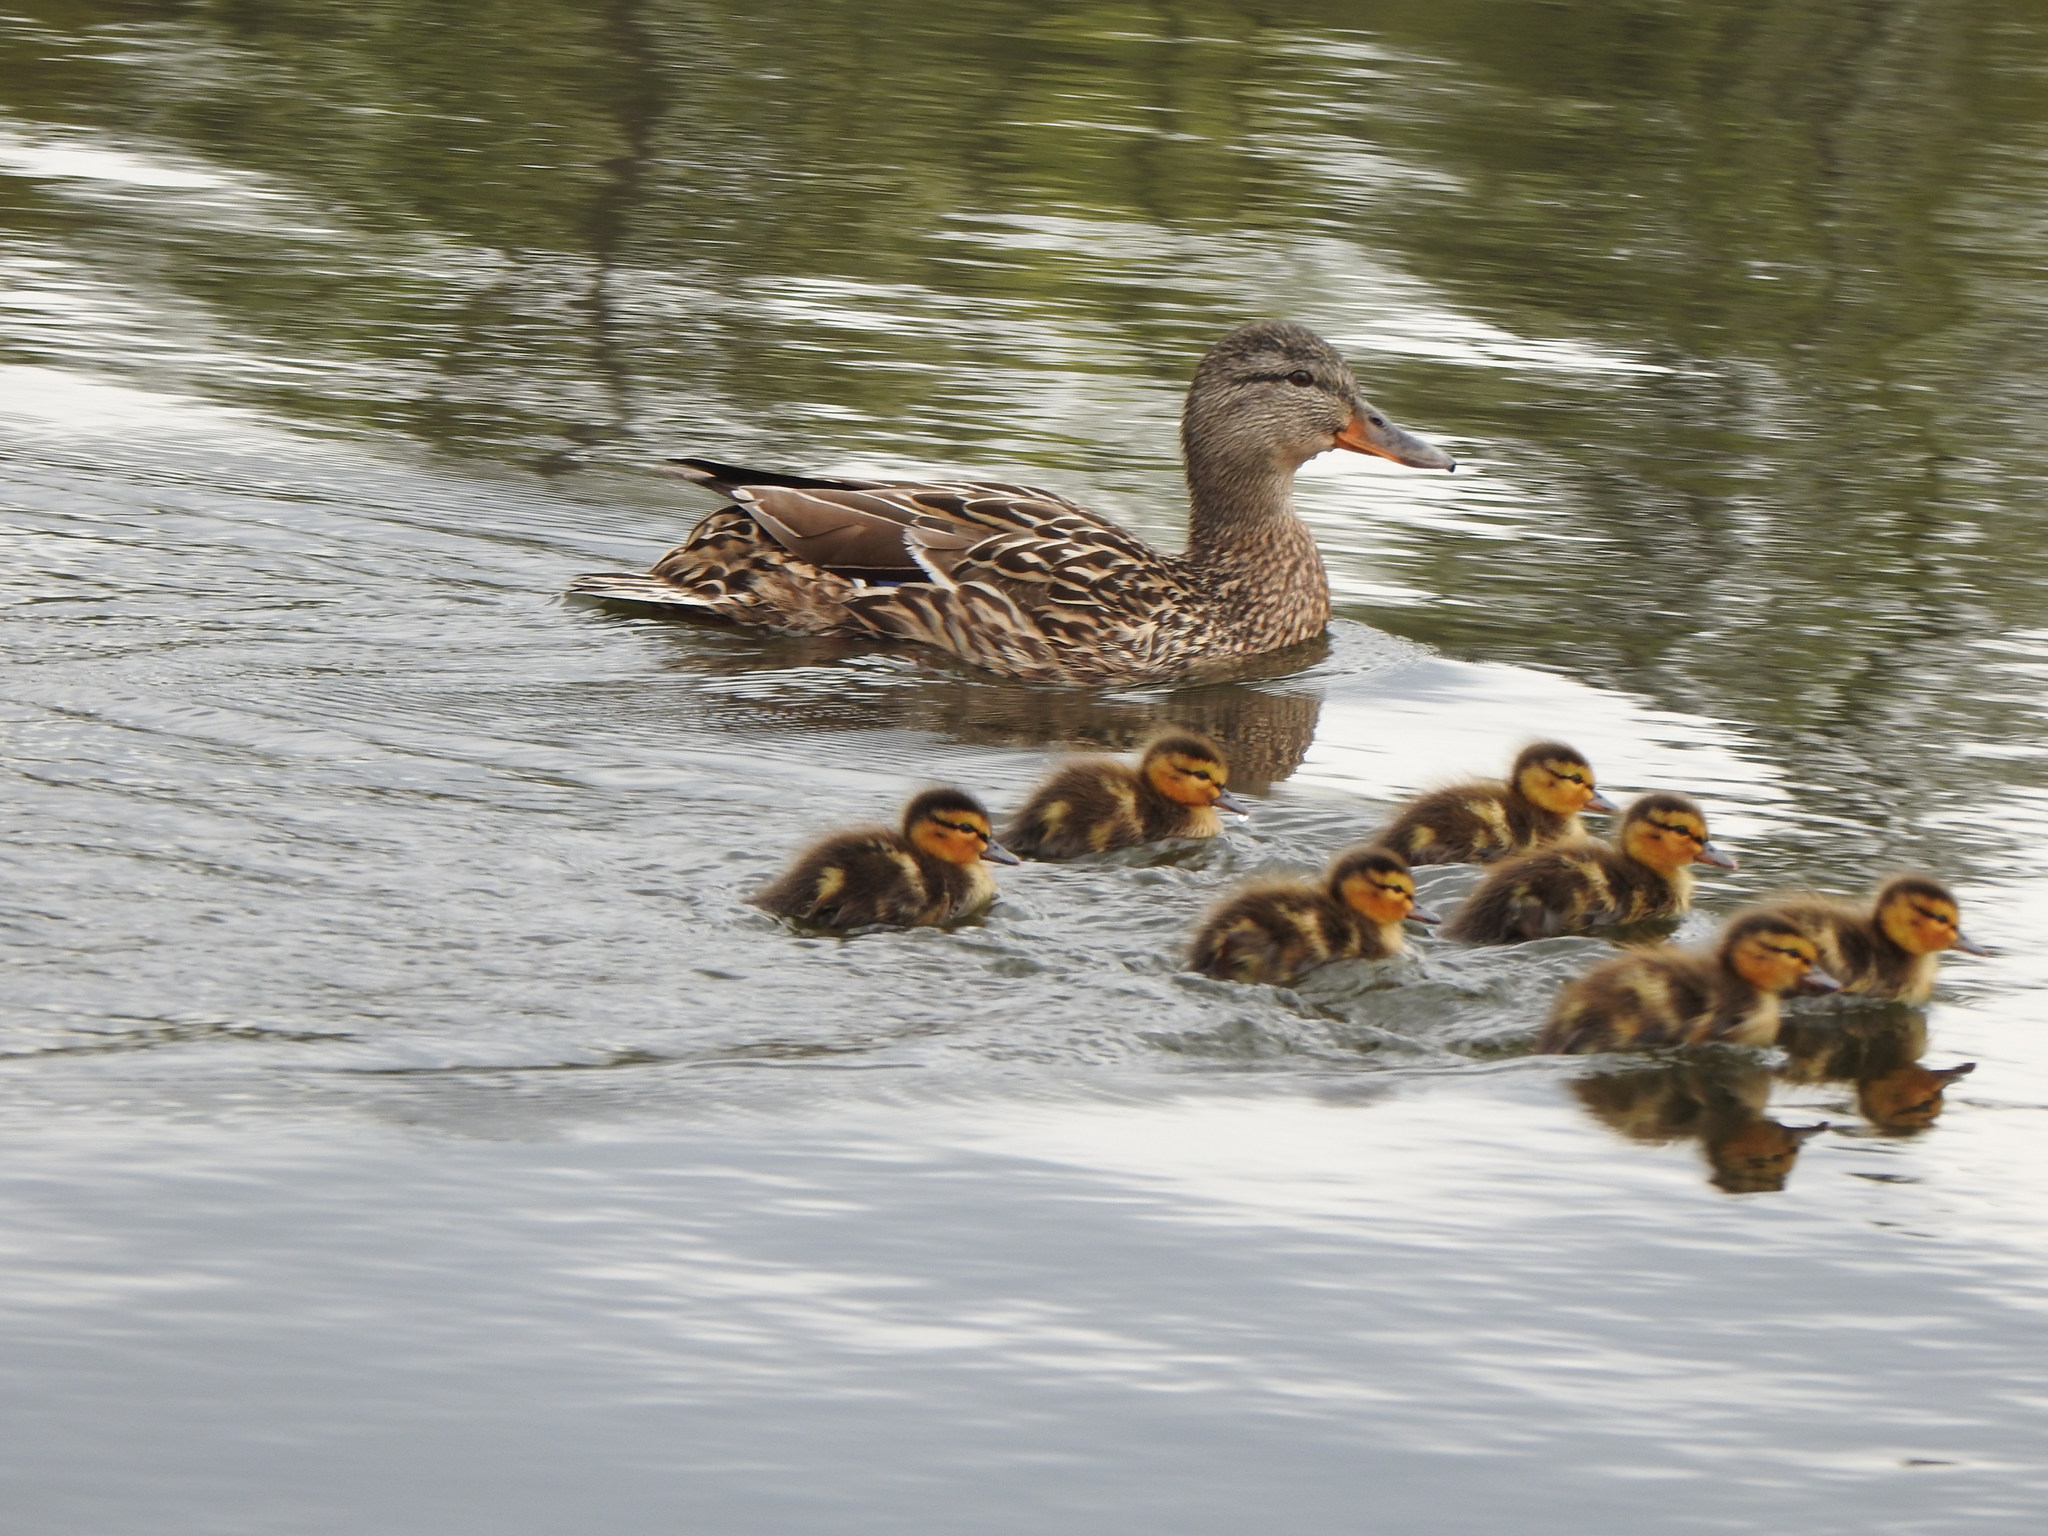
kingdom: Animalia
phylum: Chordata
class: Aves
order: Anseriformes
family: Anatidae
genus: Anas
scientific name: Anas platyrhynchos
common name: Mallard
